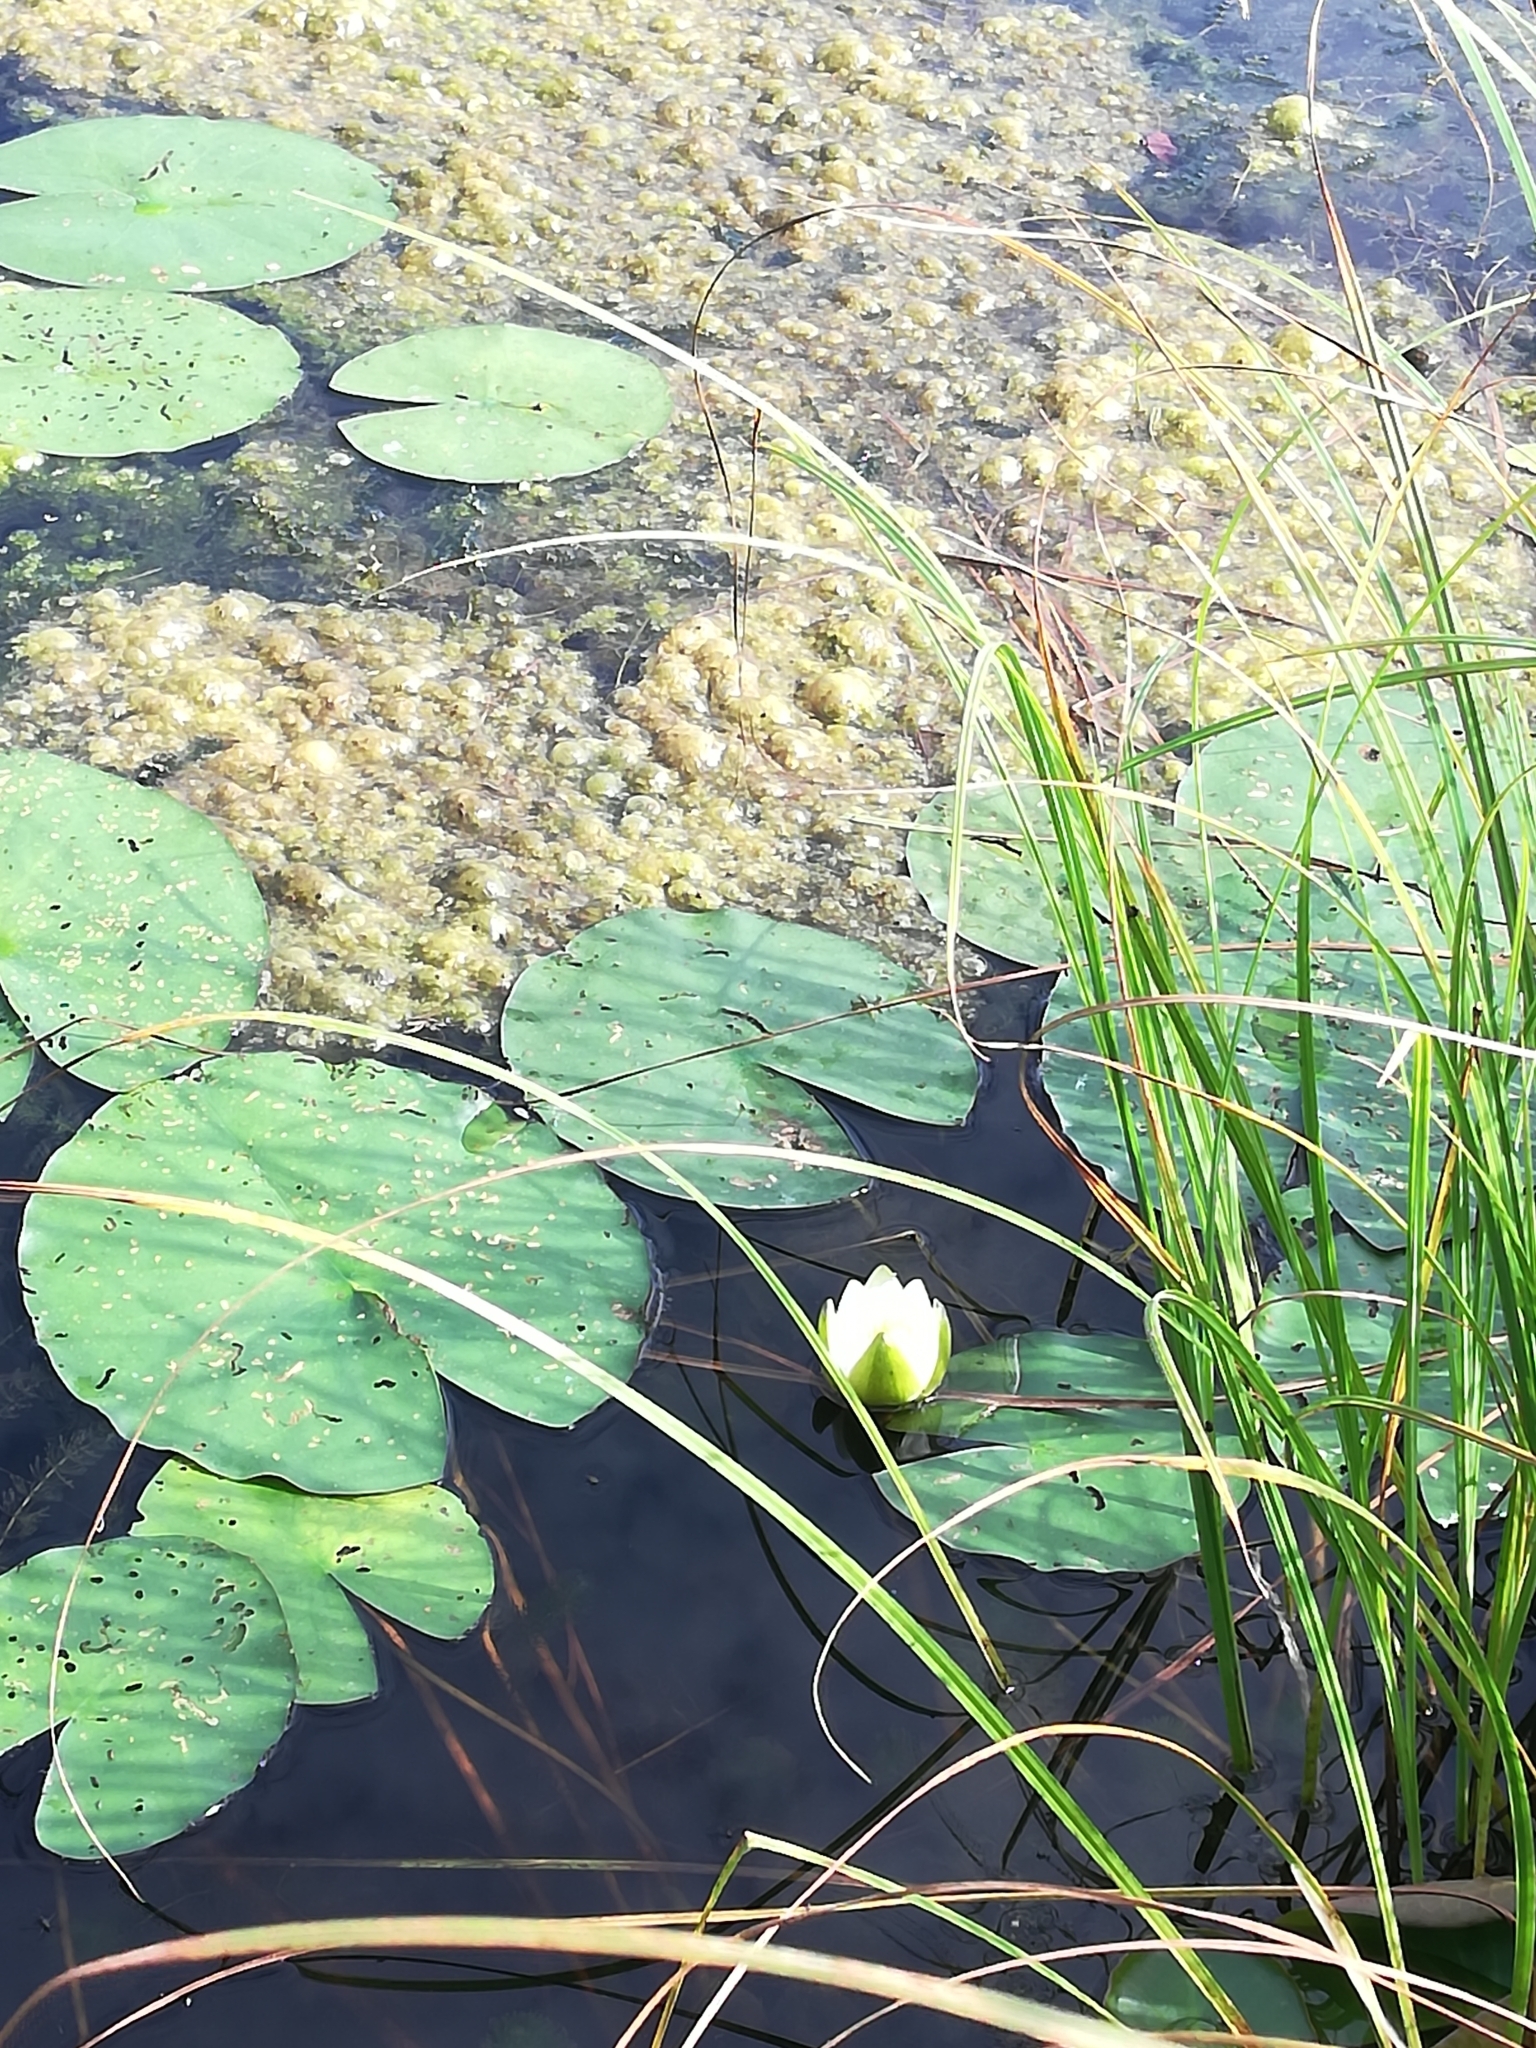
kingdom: Plantae
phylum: Tracheophyta
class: Magnoliopsida
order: Nymphaeales
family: Nymphaeaceae
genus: Nymphaea
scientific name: Nymphaea candida
